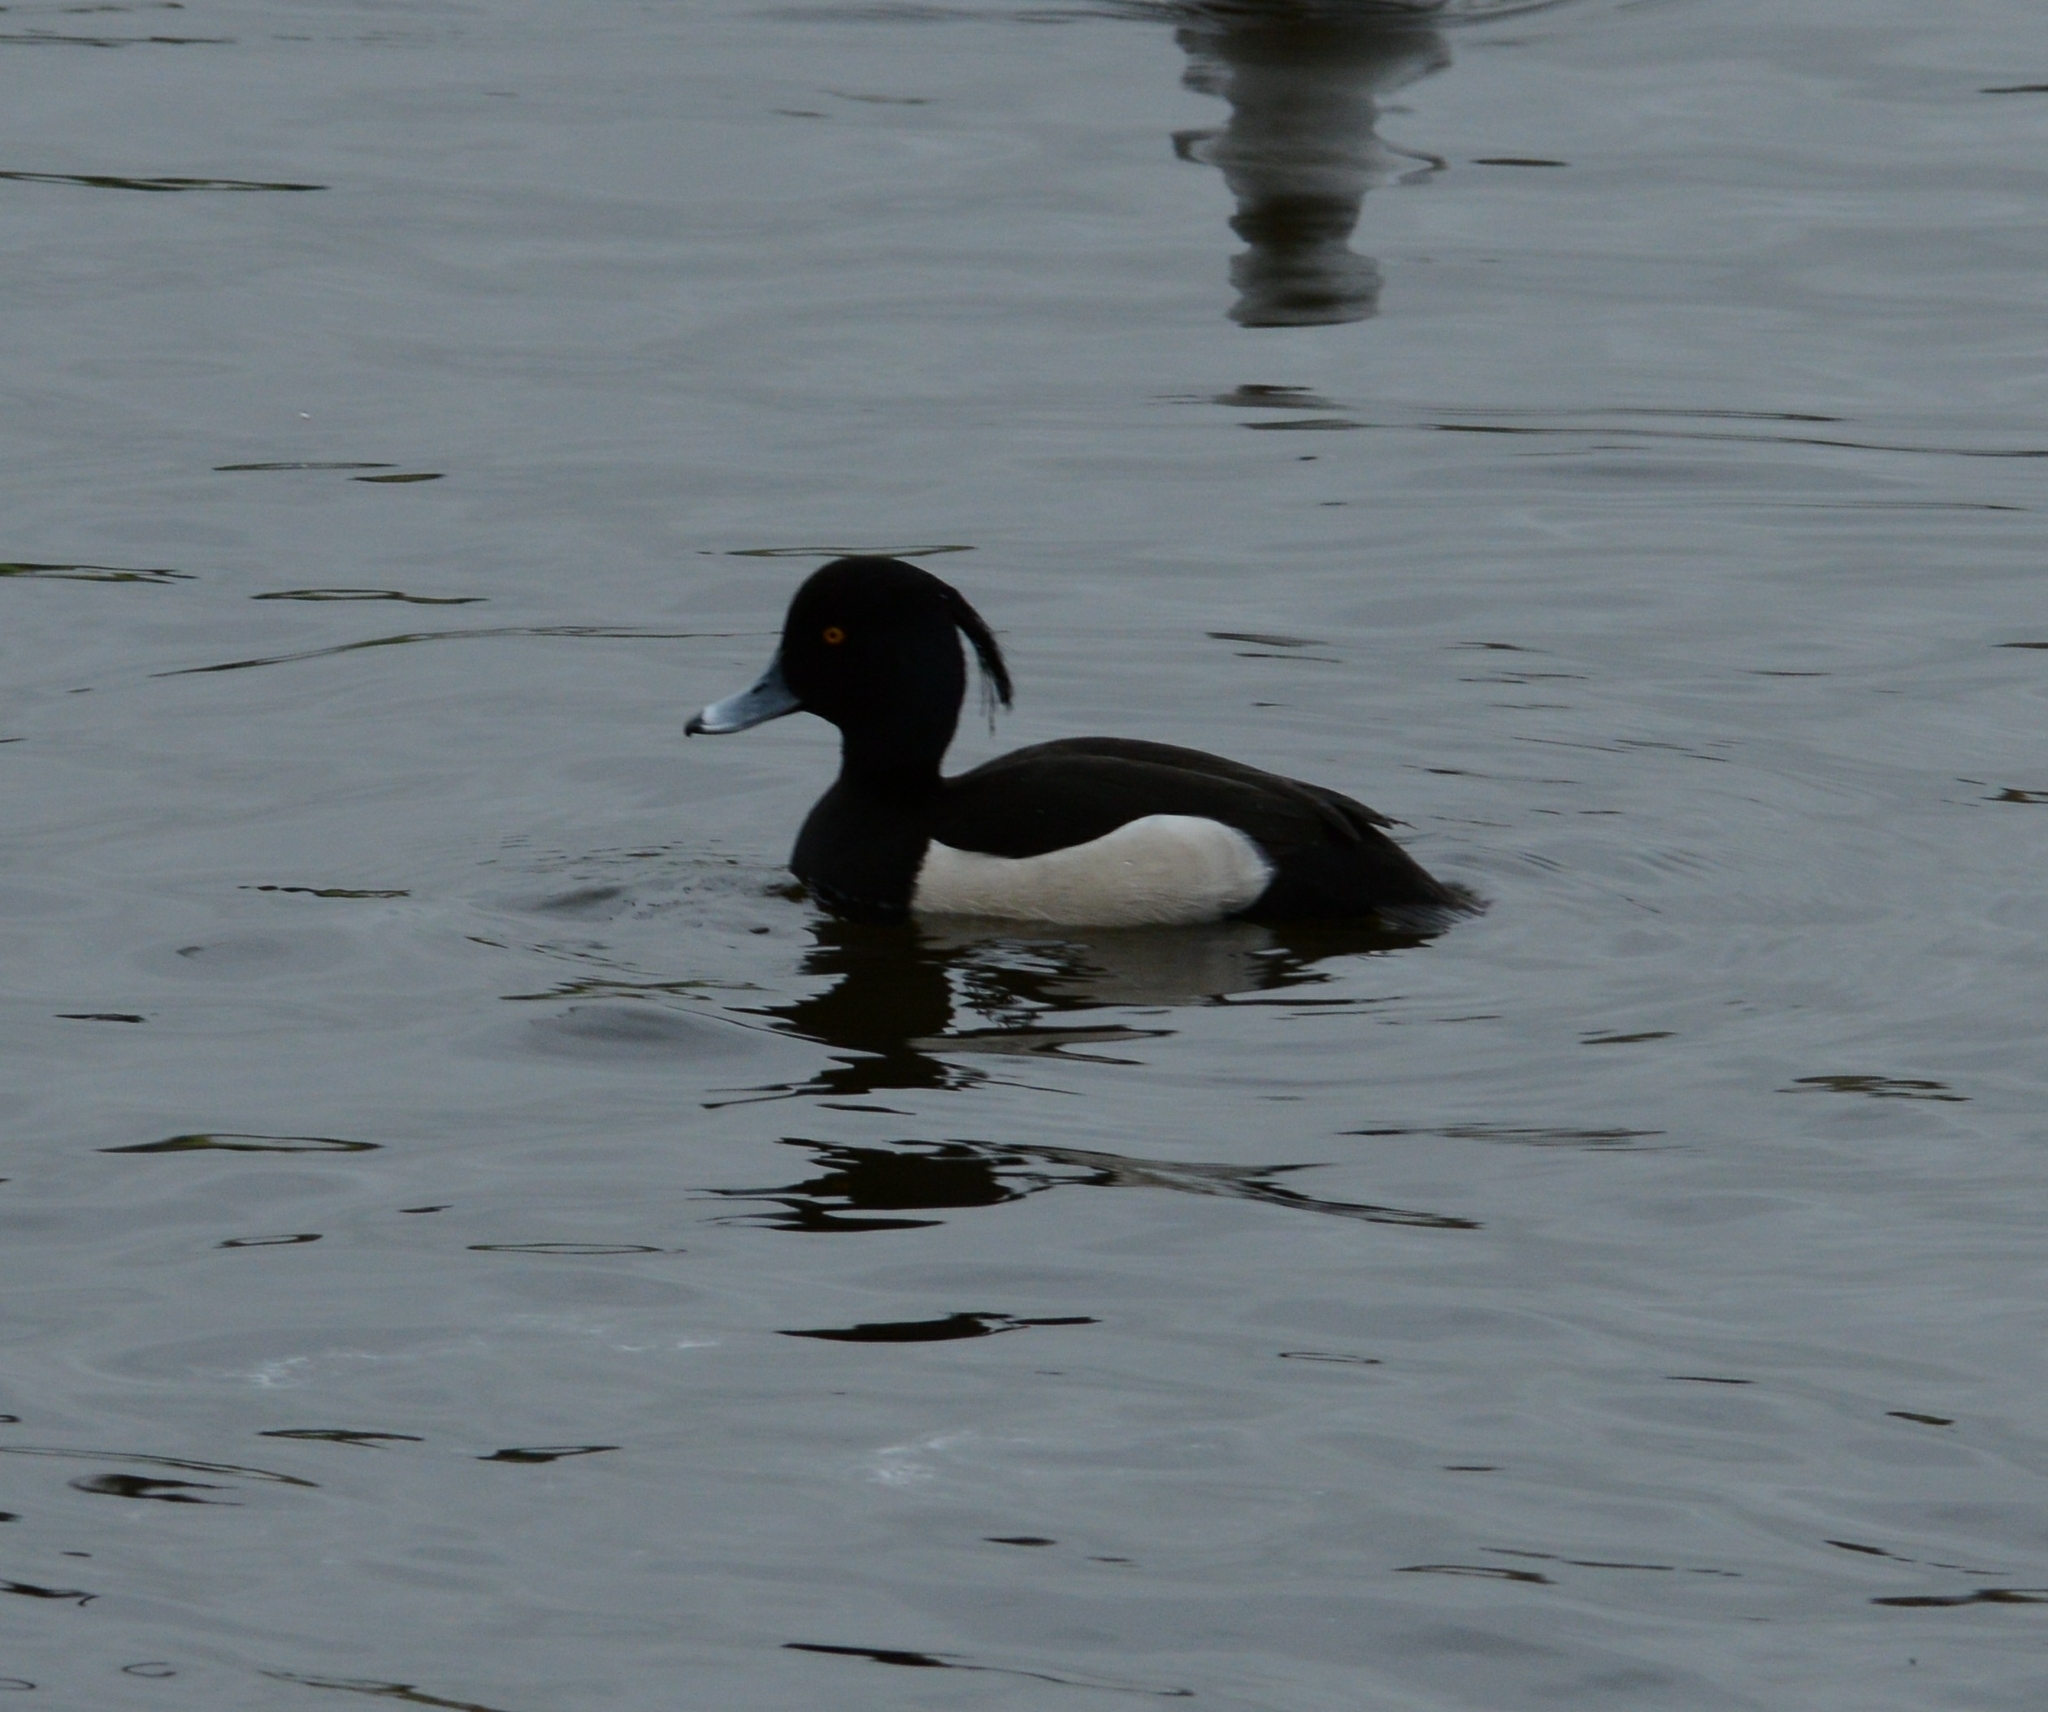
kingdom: Animalia
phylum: Chordata
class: Aves
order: Anseriformes
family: Anatidae
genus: Aythya
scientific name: Aythya fuligula
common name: Tufted duck
